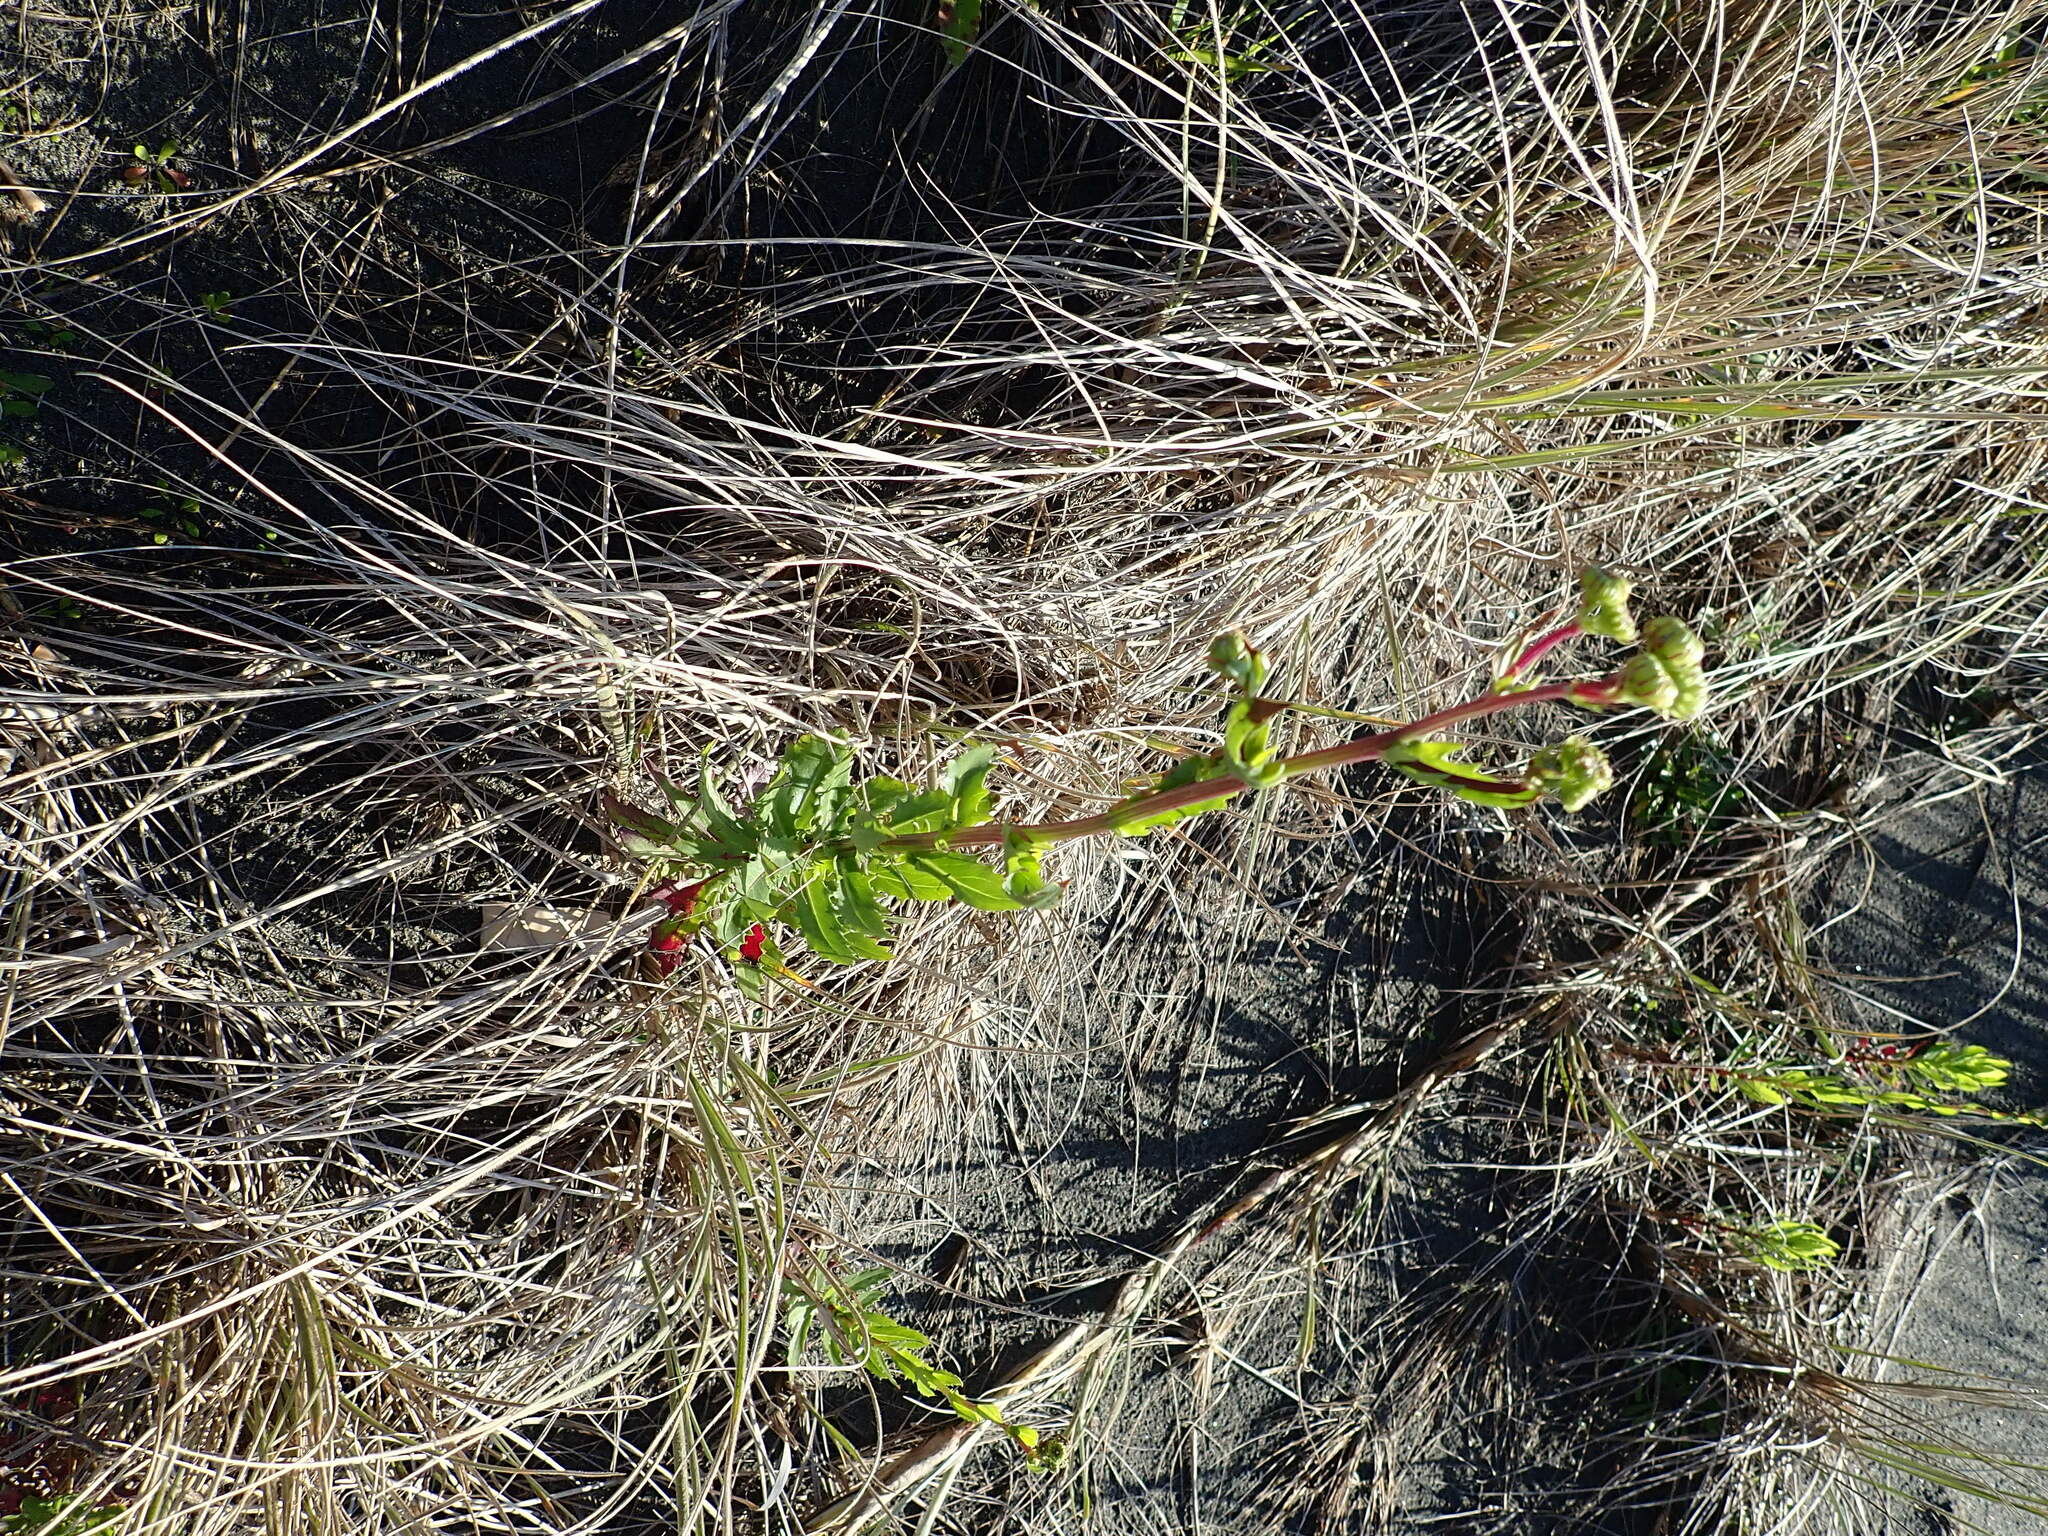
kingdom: Plantae
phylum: Tracheophyta
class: Magnoliopsida
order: Asterales
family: Asteraceae
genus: Senecio
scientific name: Senecio glastifolius
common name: Woad-leaved ragwort
